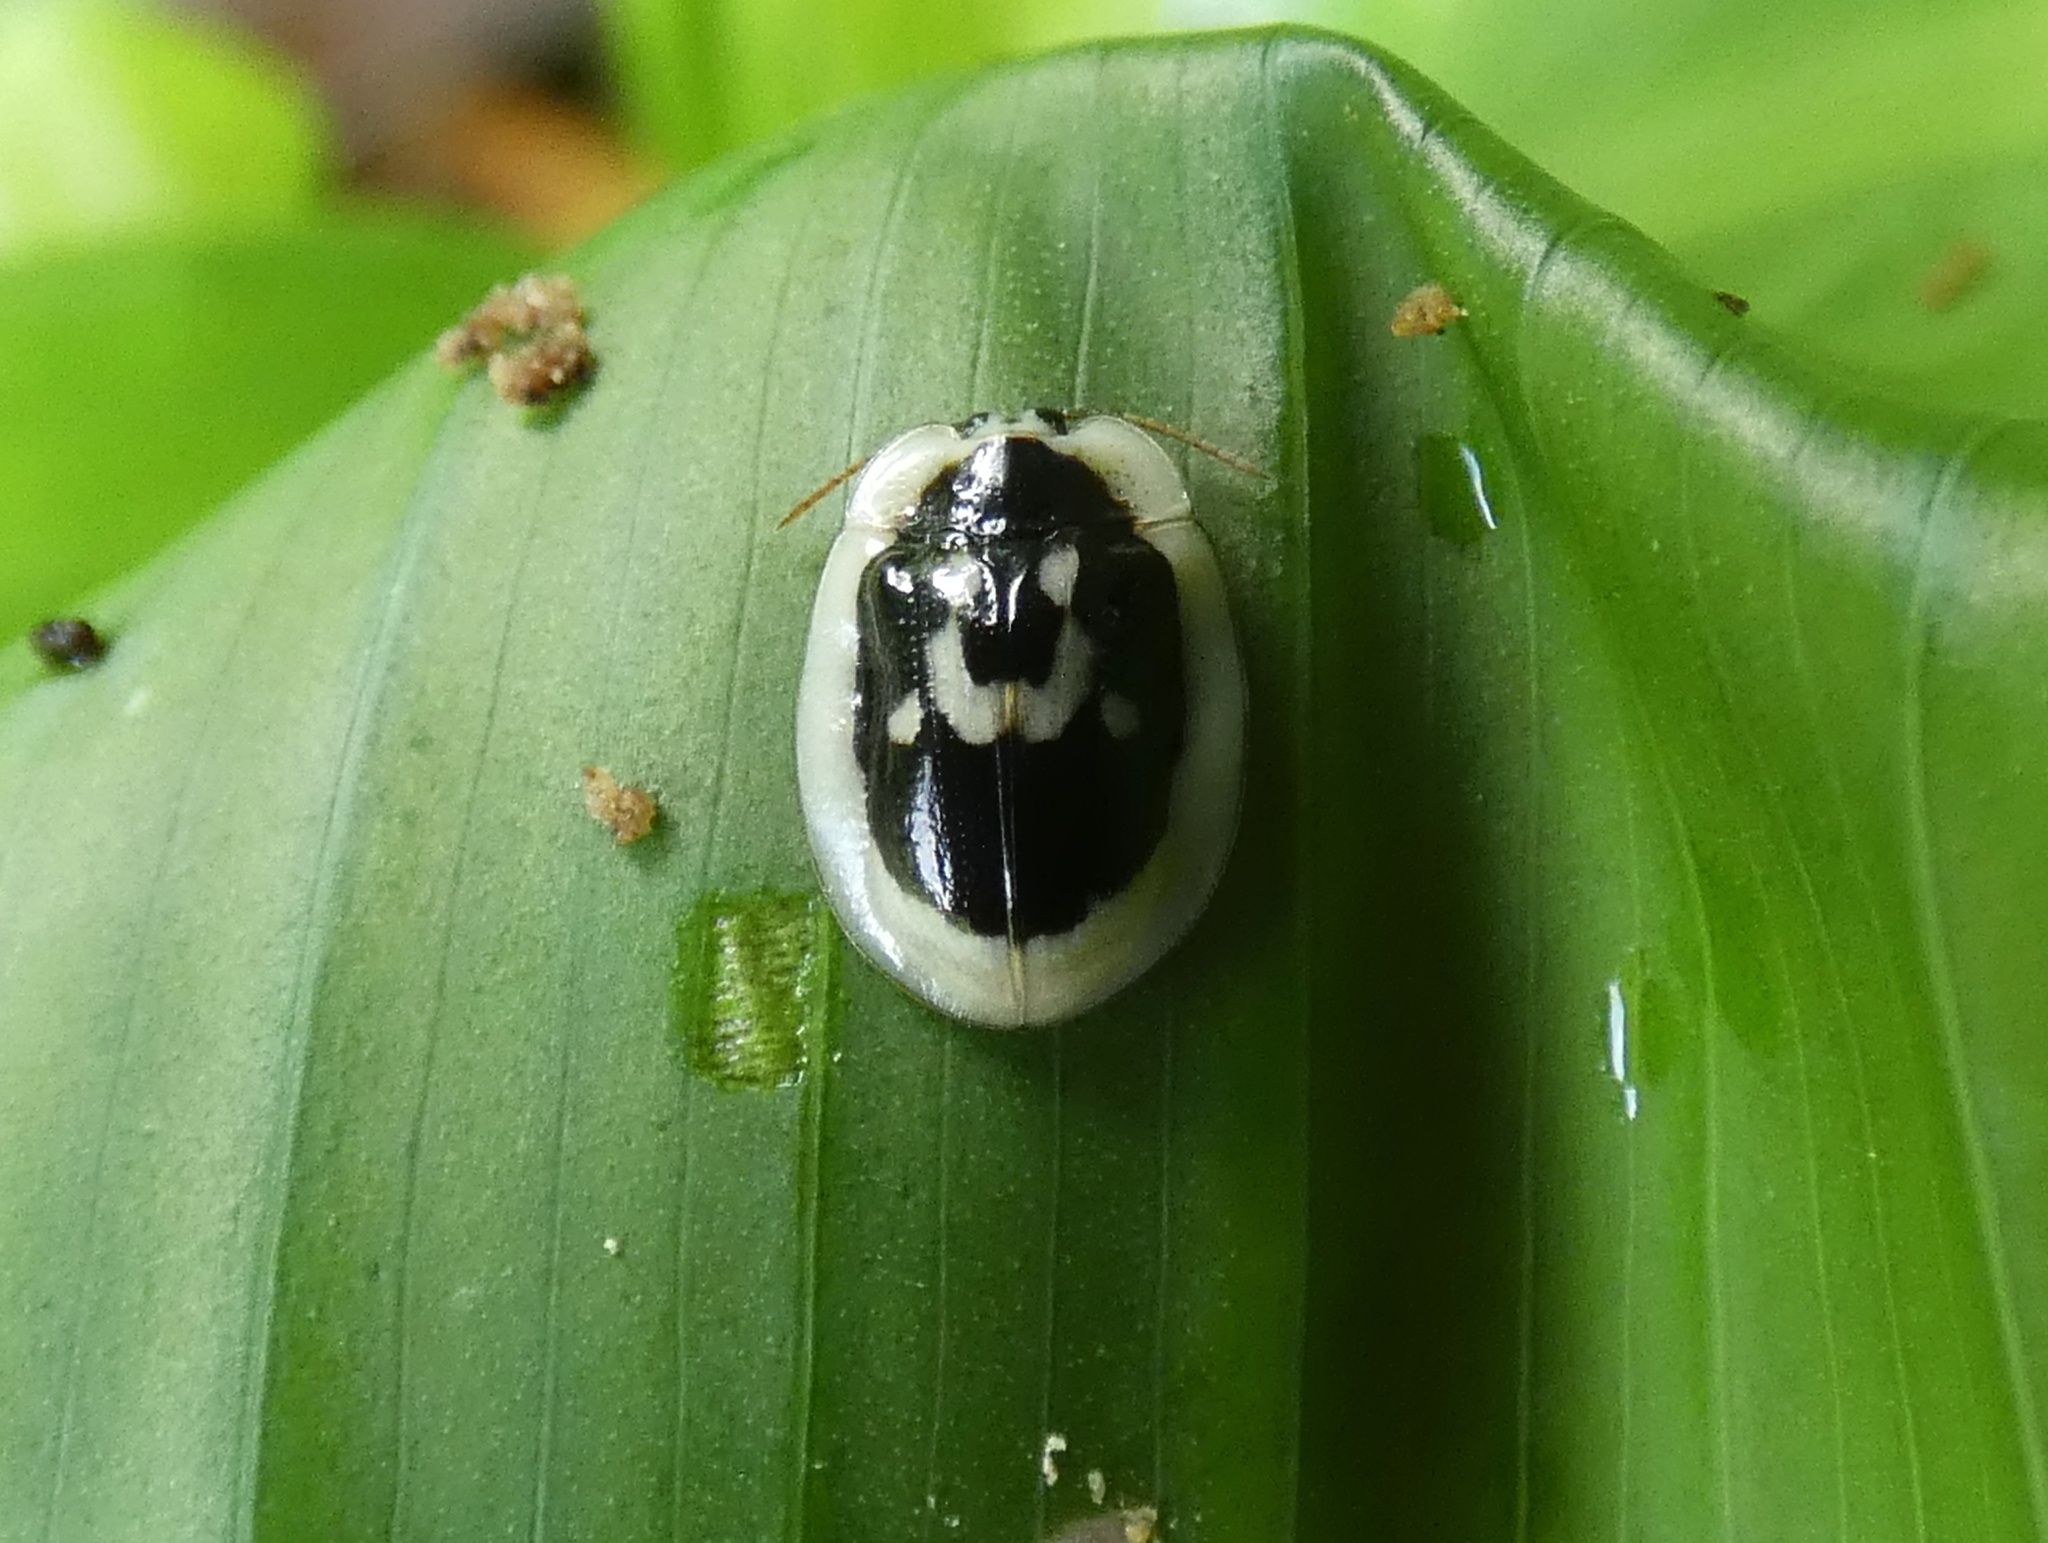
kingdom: Animalia
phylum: Arthropoda
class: Insecta
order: Coleoptera
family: Chrysomelidae
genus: Aslamidium
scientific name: Aslamidium semicirculare
